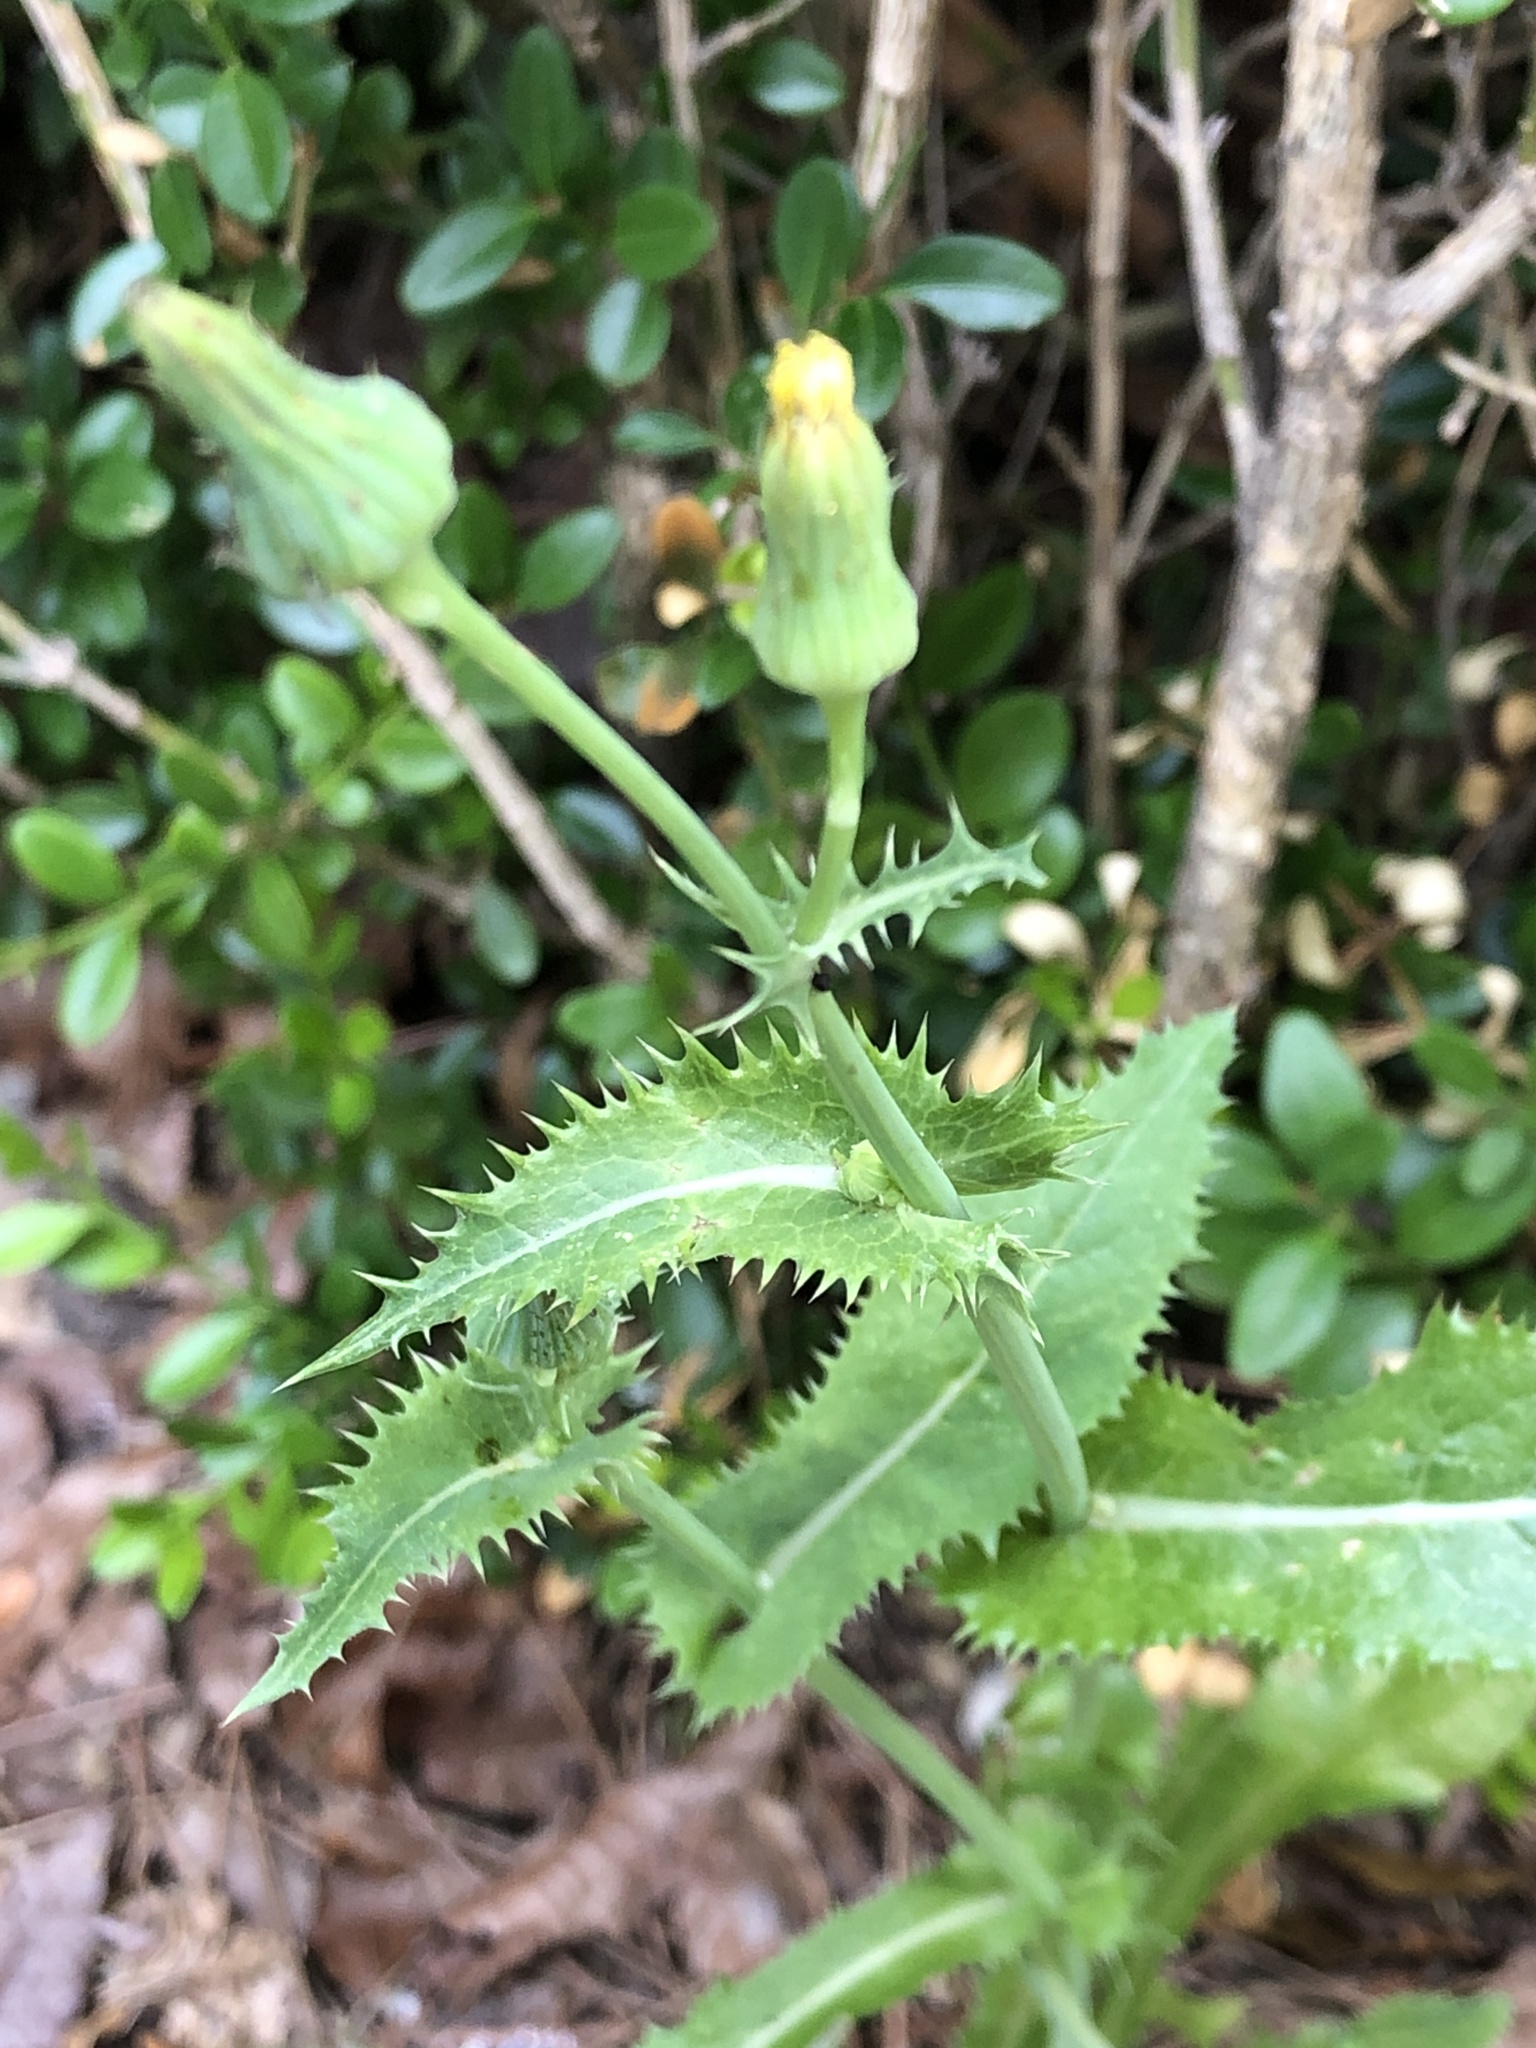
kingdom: Plantae
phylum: Tracheophyta
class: Magnoliopsida
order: Asterales
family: Asteraceae
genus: Sonchus
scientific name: Sonchus asper
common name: Prickly sow-thistle
